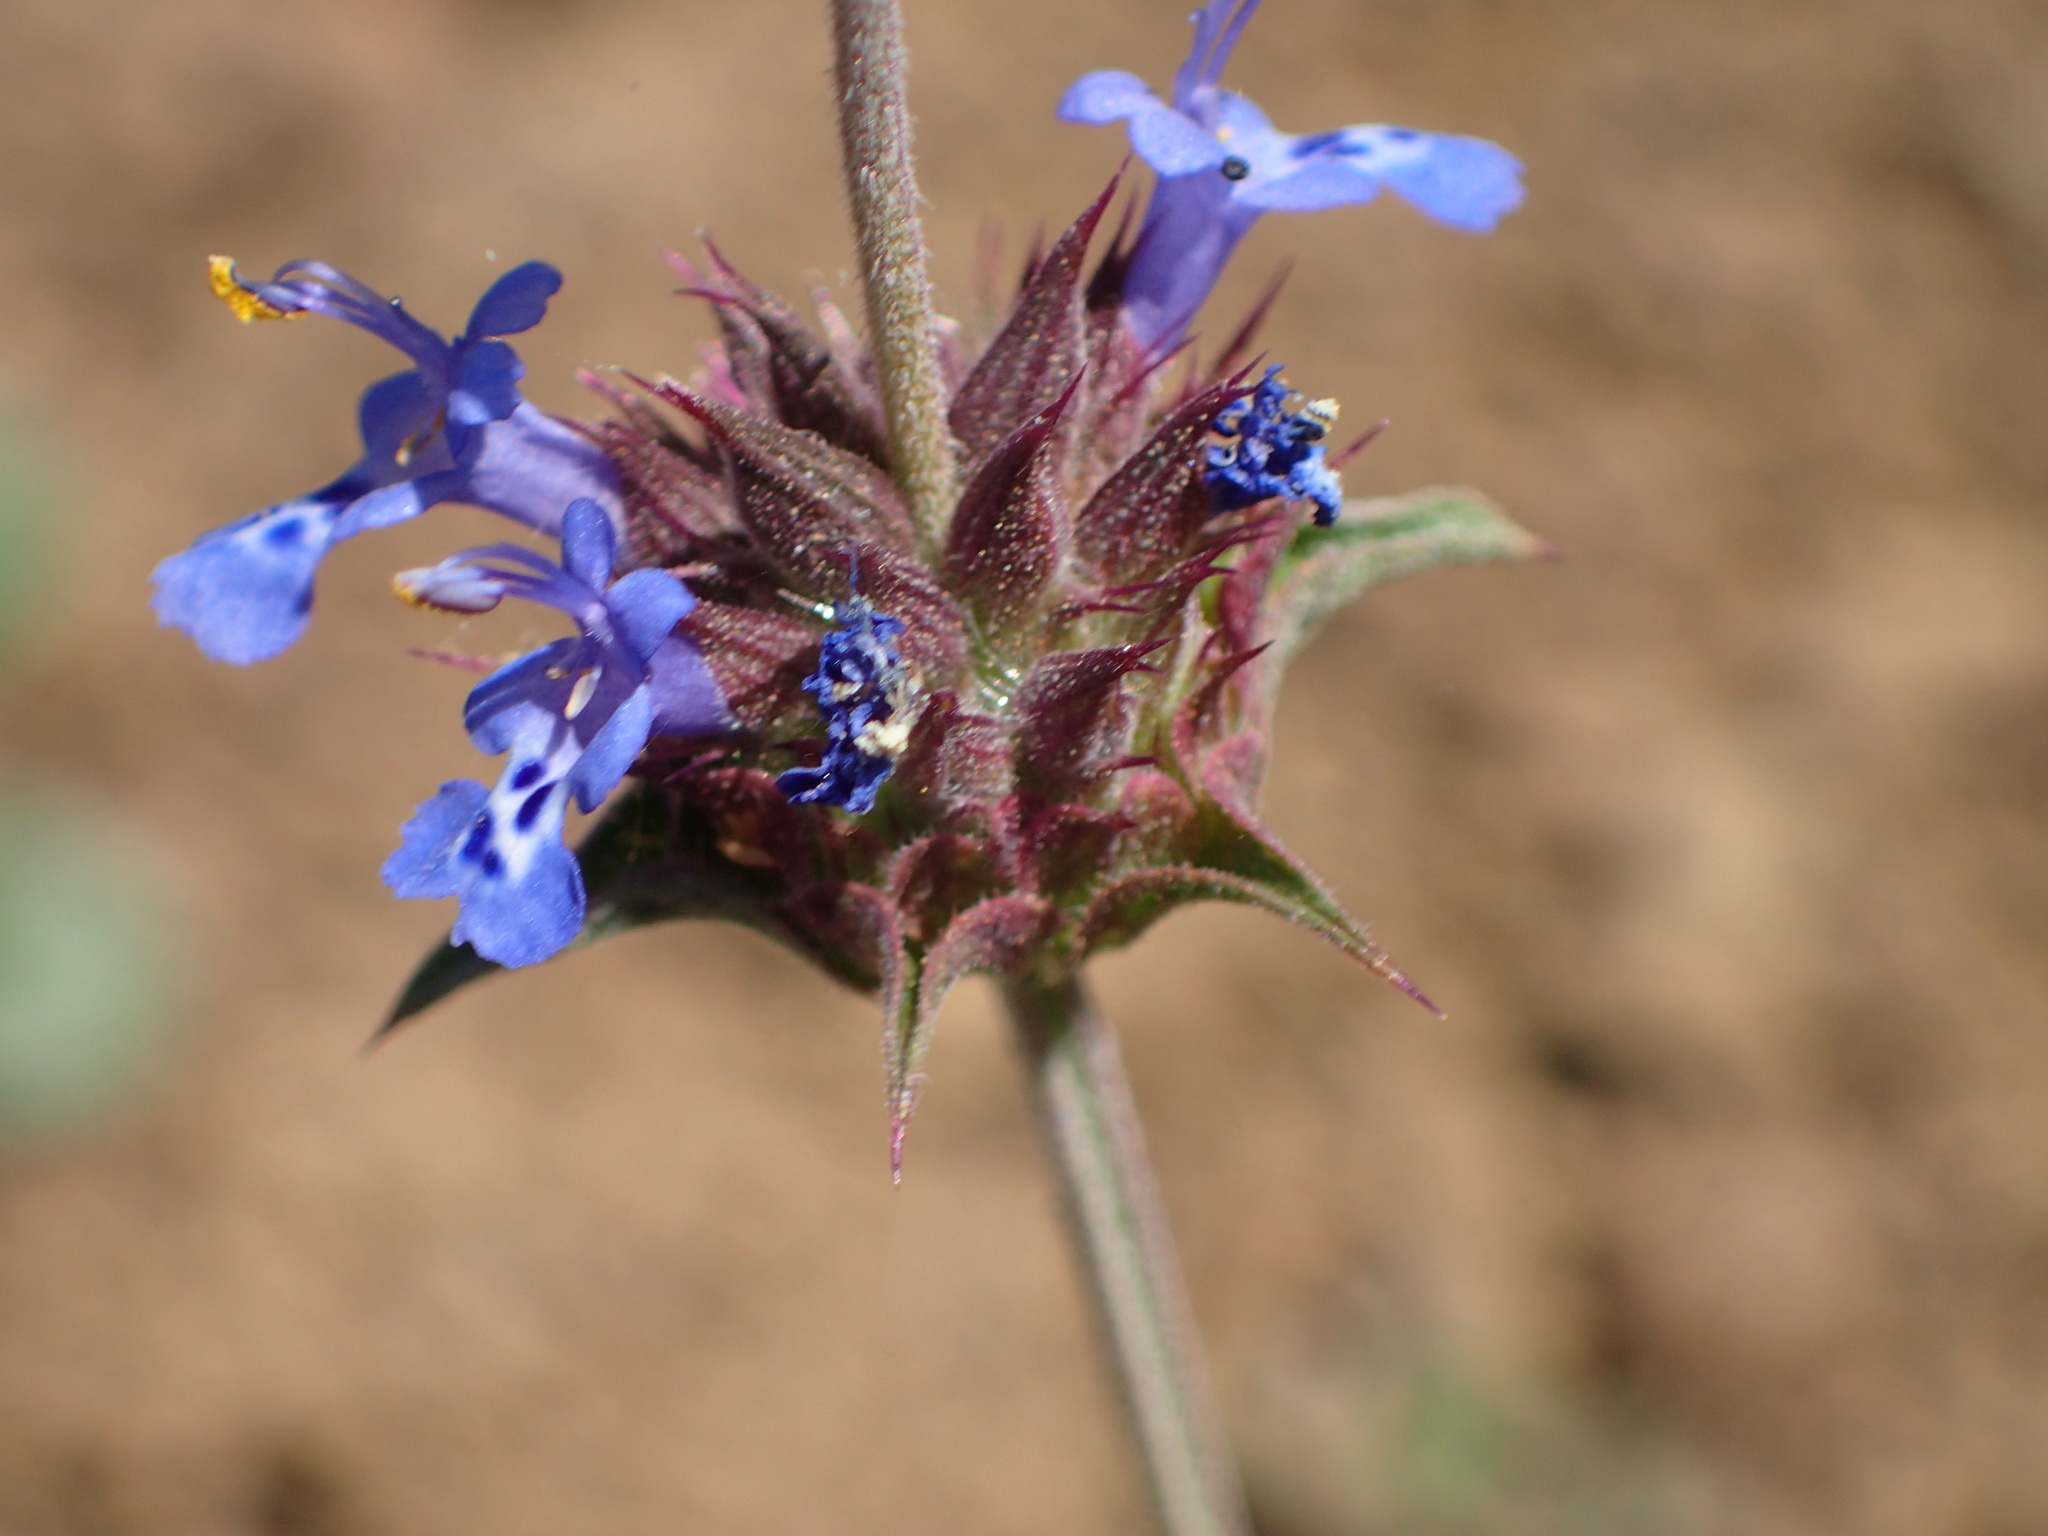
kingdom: Plantae
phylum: Tracheophyta
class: Magnoliopsida
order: Lamiales
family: Lamiaceae
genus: Salvia
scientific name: Salvia columbariae
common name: Chia
